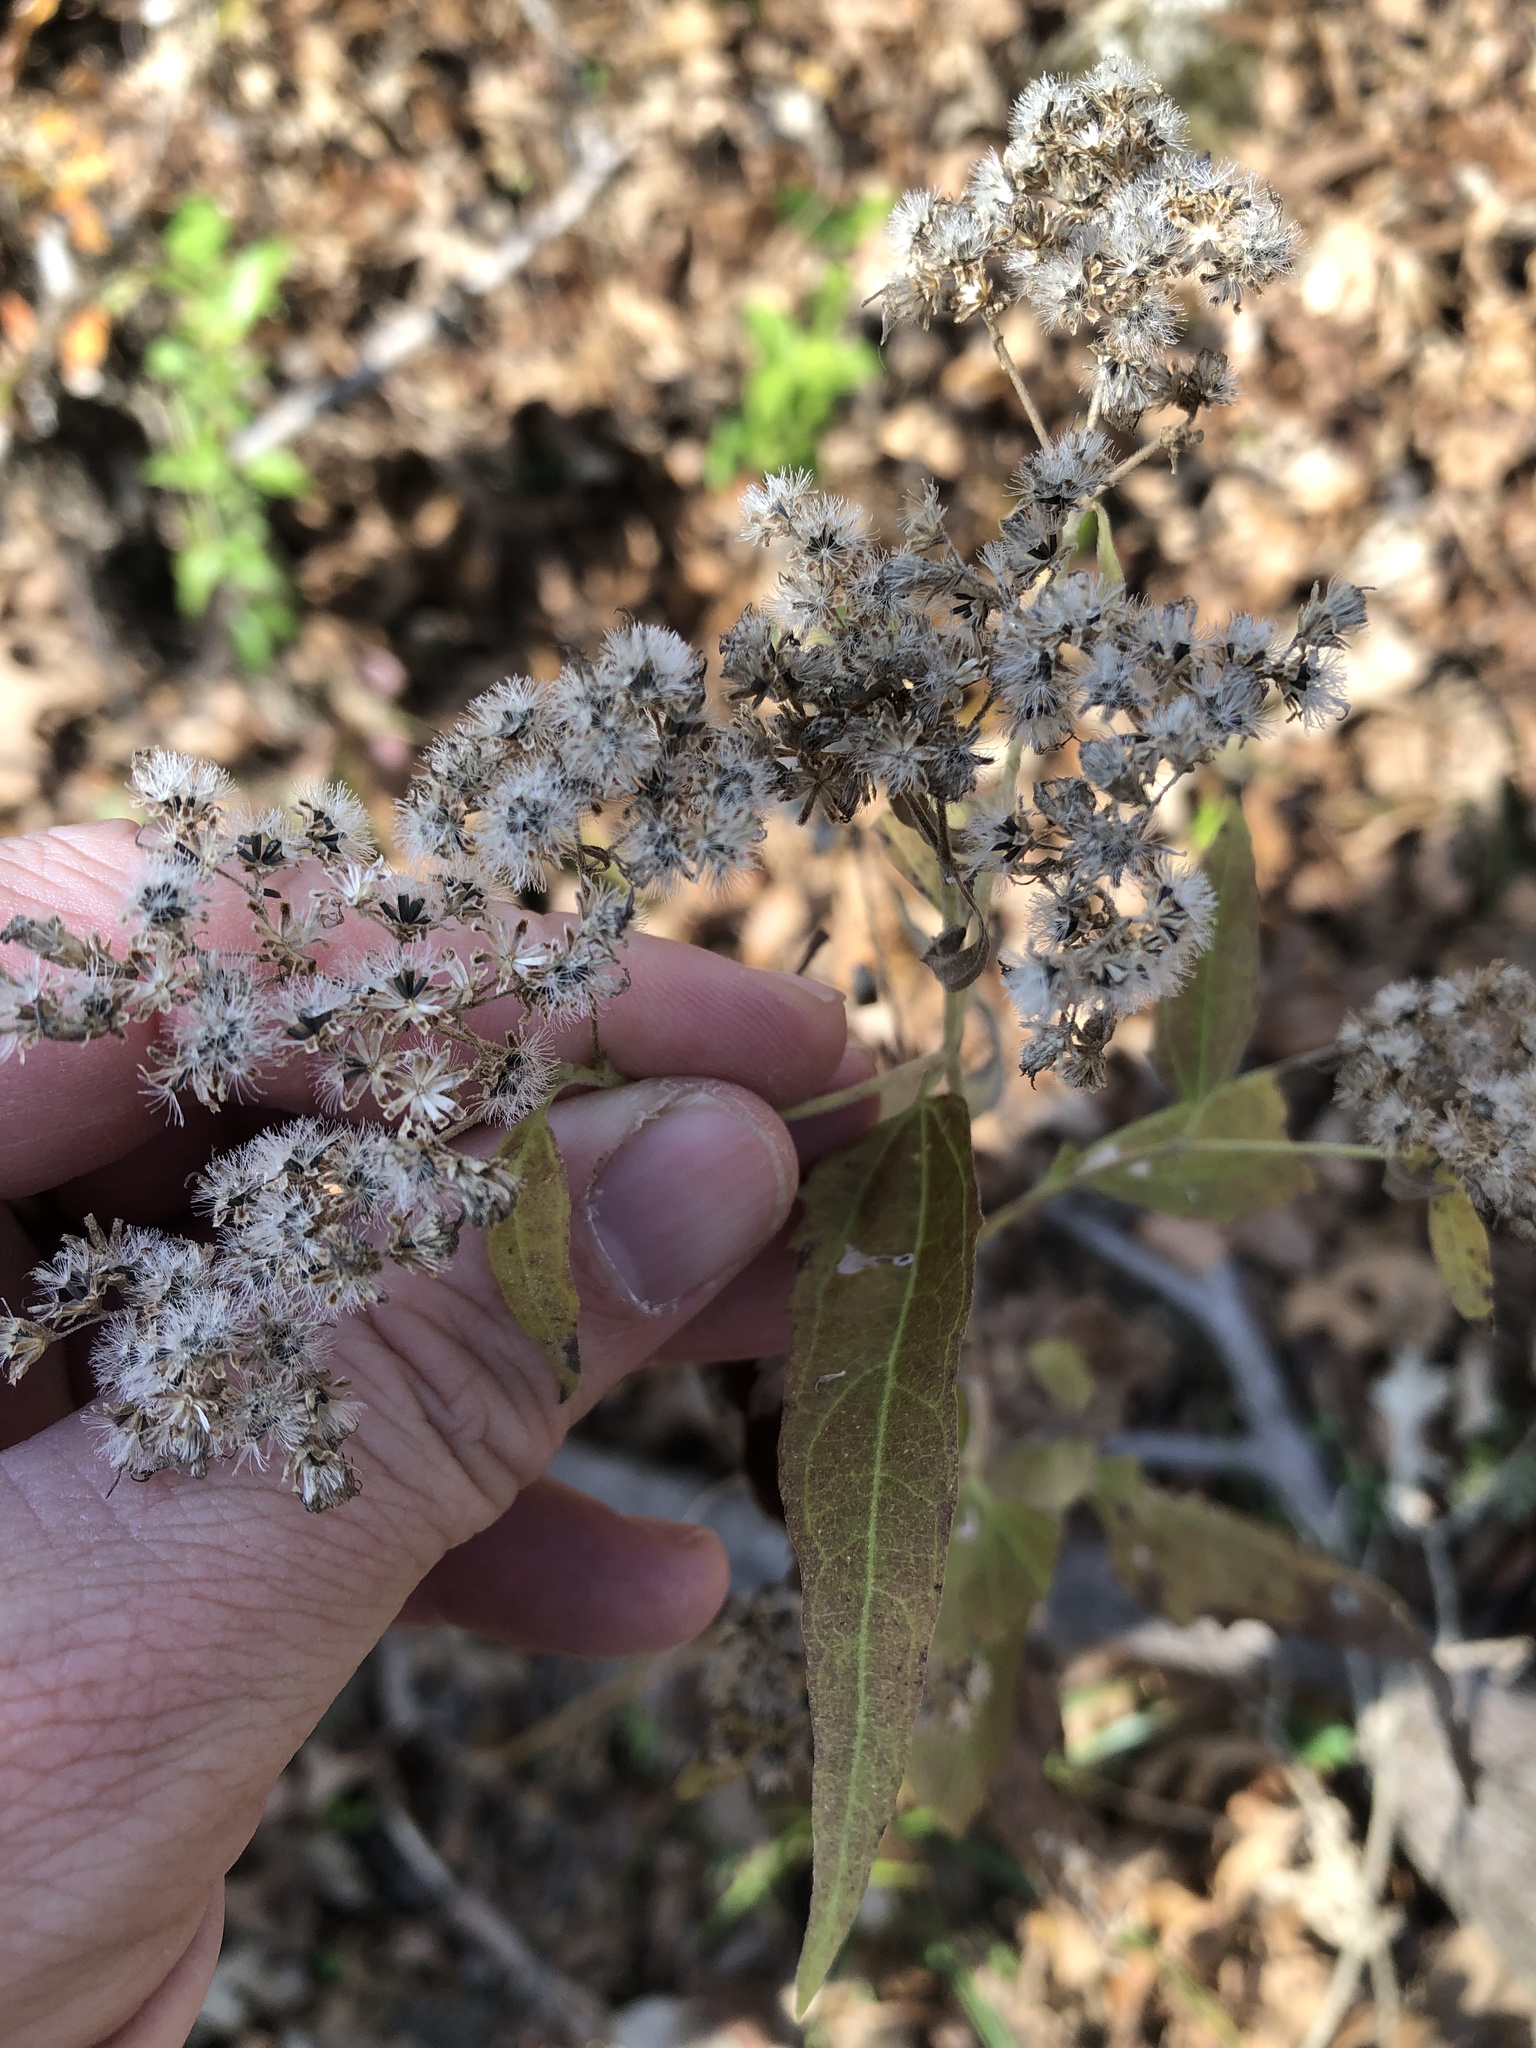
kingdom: Plantae
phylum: Tracheophyta
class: Magnoliopsida
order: Asterales
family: Asteraceae
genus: Eupatorium
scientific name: Eupatorium serotinum
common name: Late boneset
